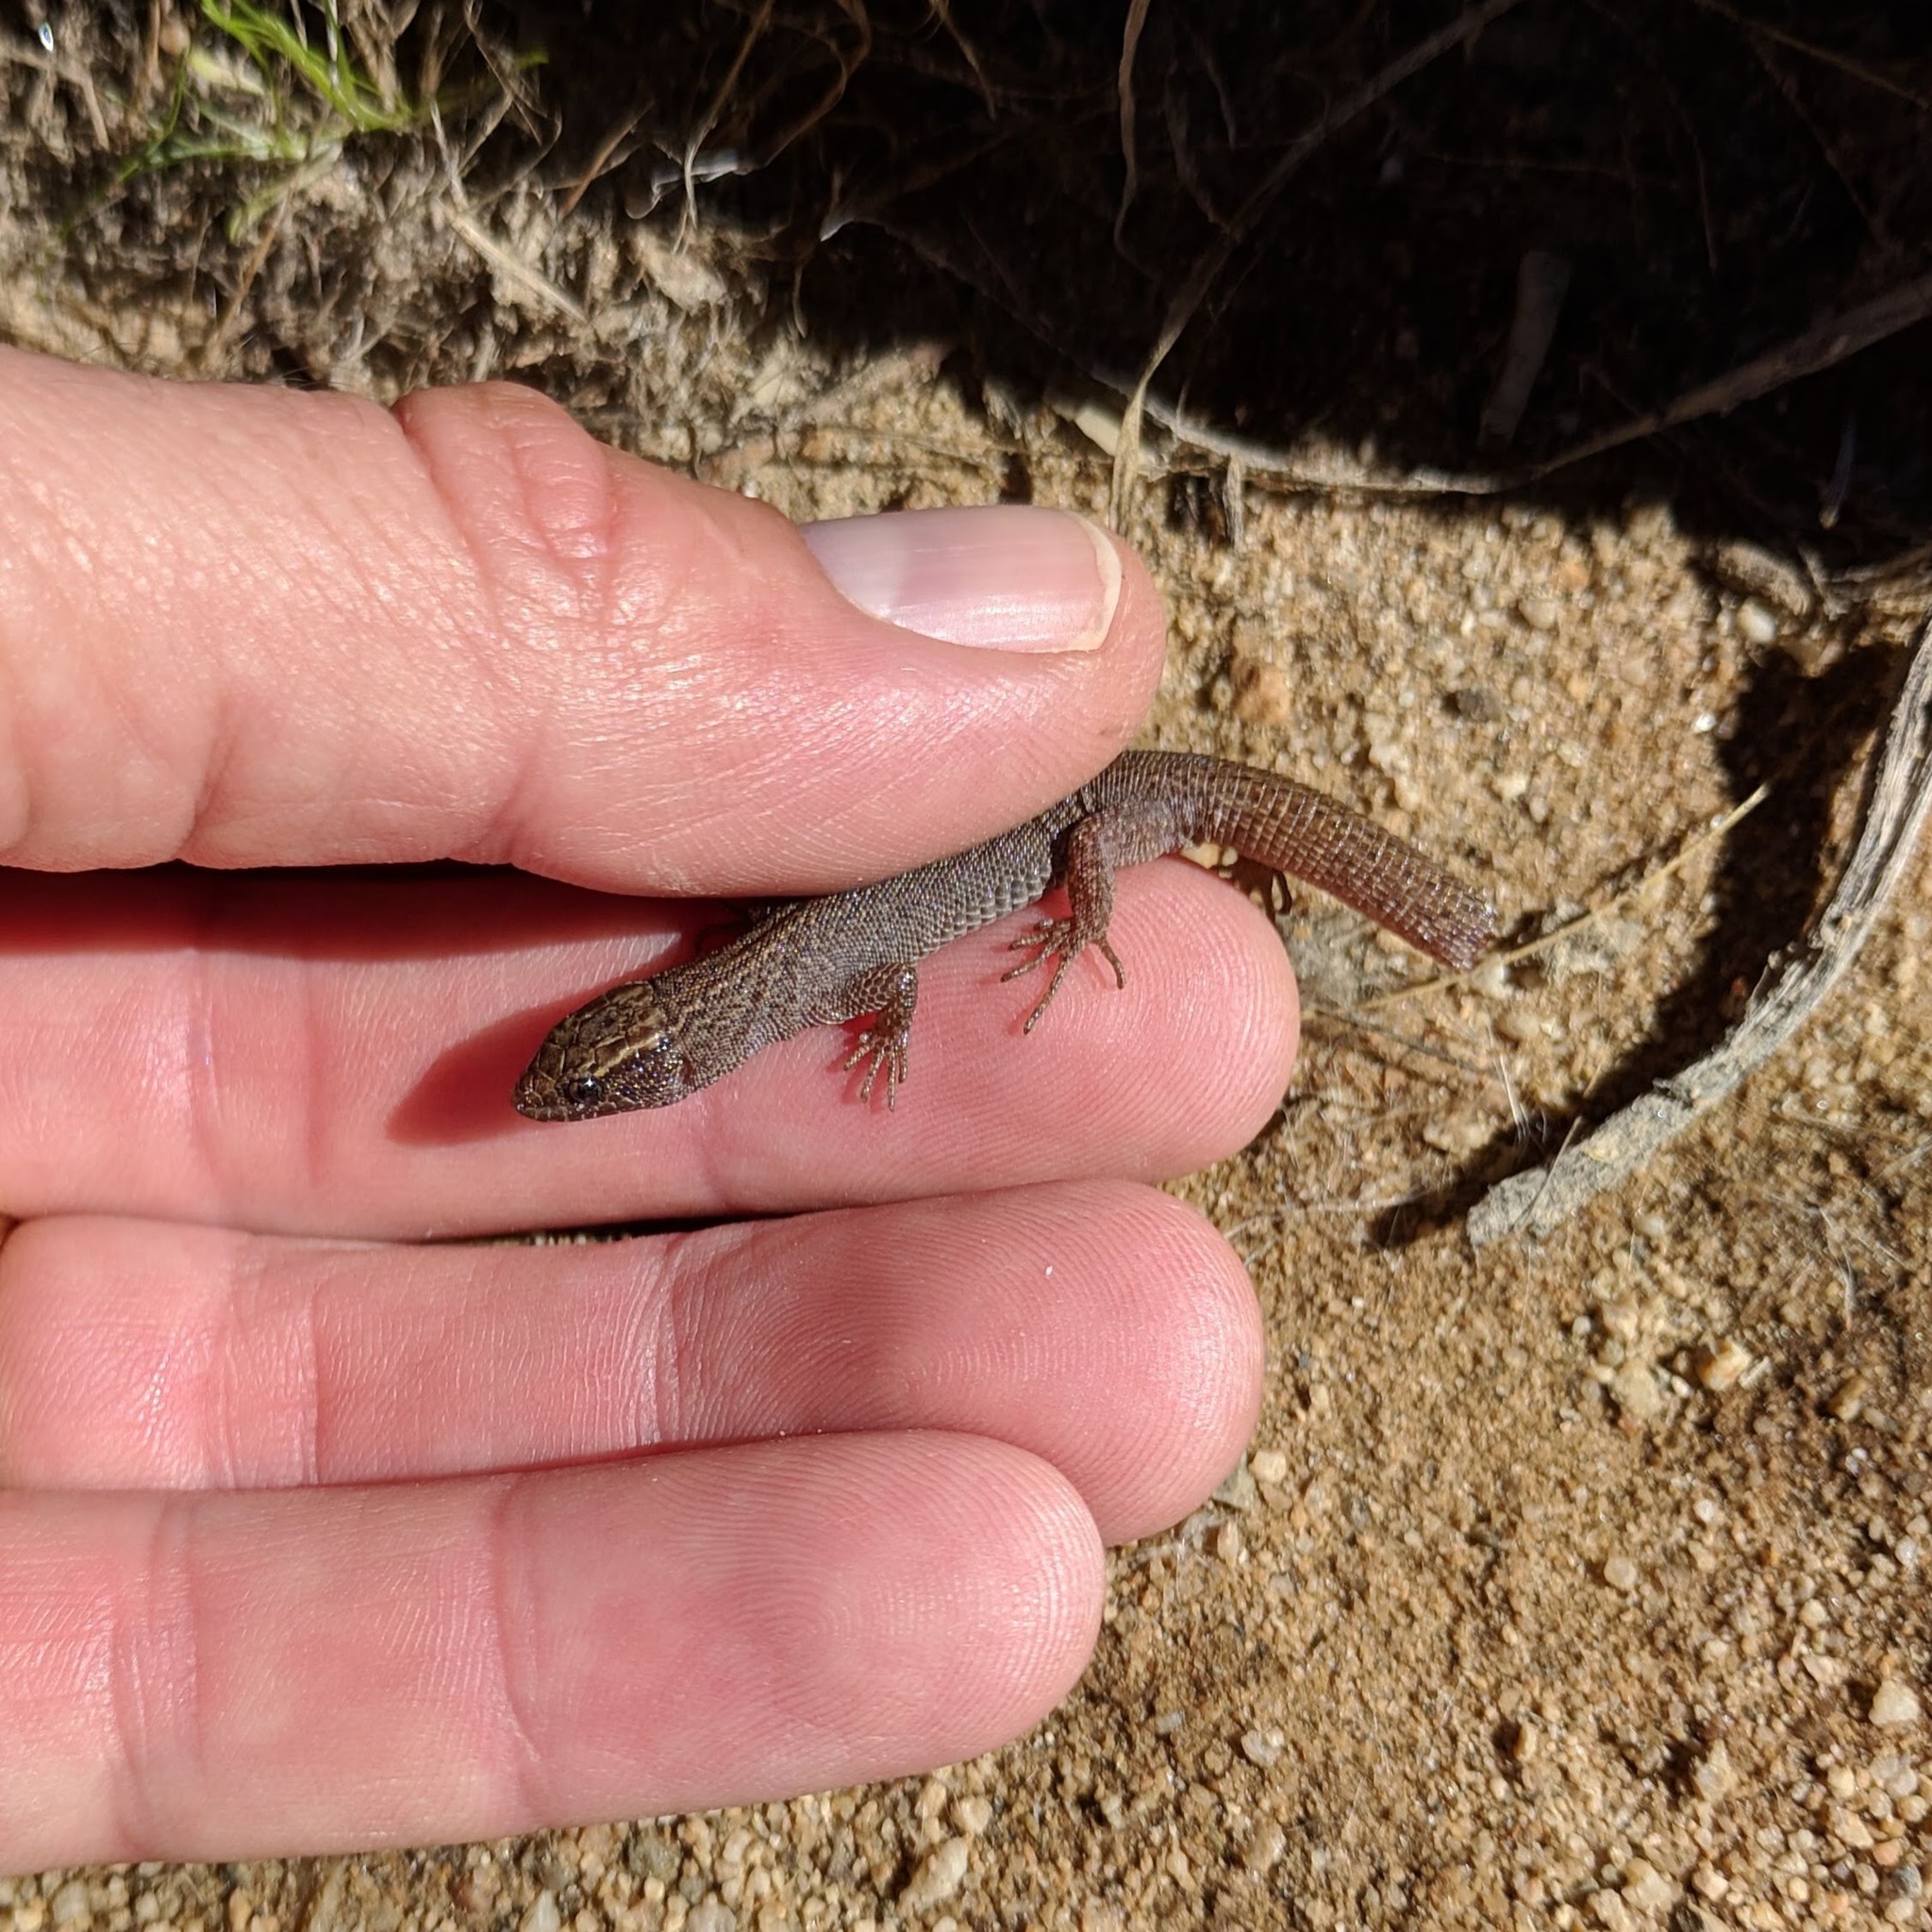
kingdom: Animalia
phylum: Chordata
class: Squamata
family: Xantusiidae
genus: Xantusia
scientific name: Xantusia vigilis
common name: Desert night lizard
